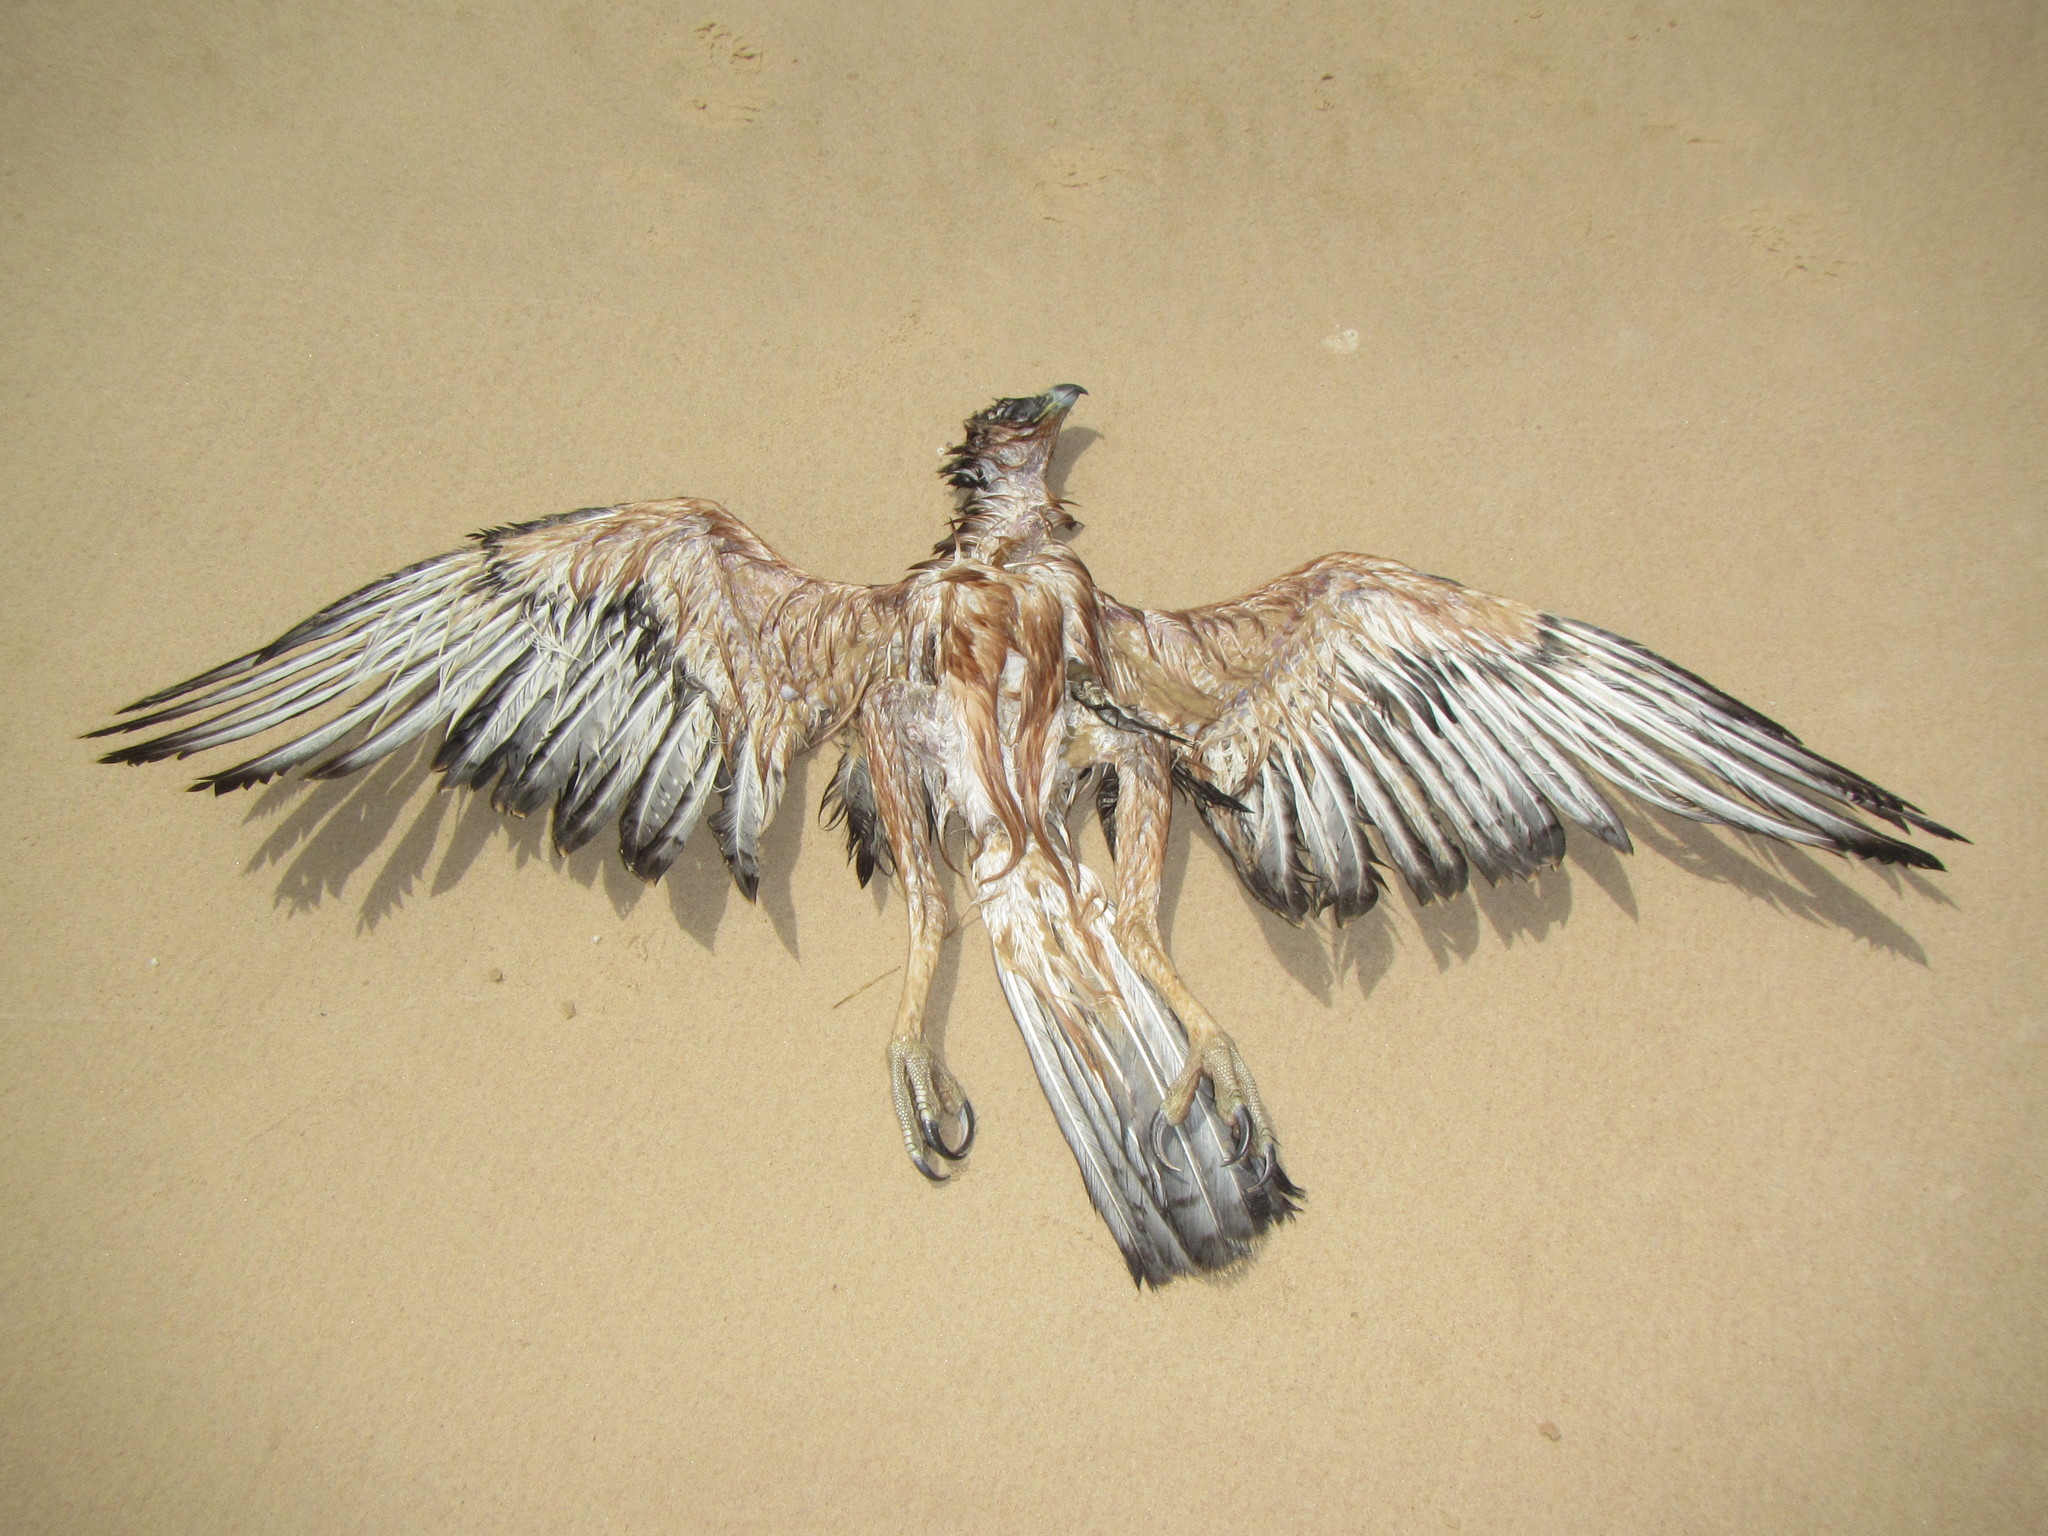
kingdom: Animalia
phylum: Chordata
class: Aves
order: Accipitriformes
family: Accipitridae
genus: Aquila
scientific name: Aquila spilogaster
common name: African hawk-eagle
